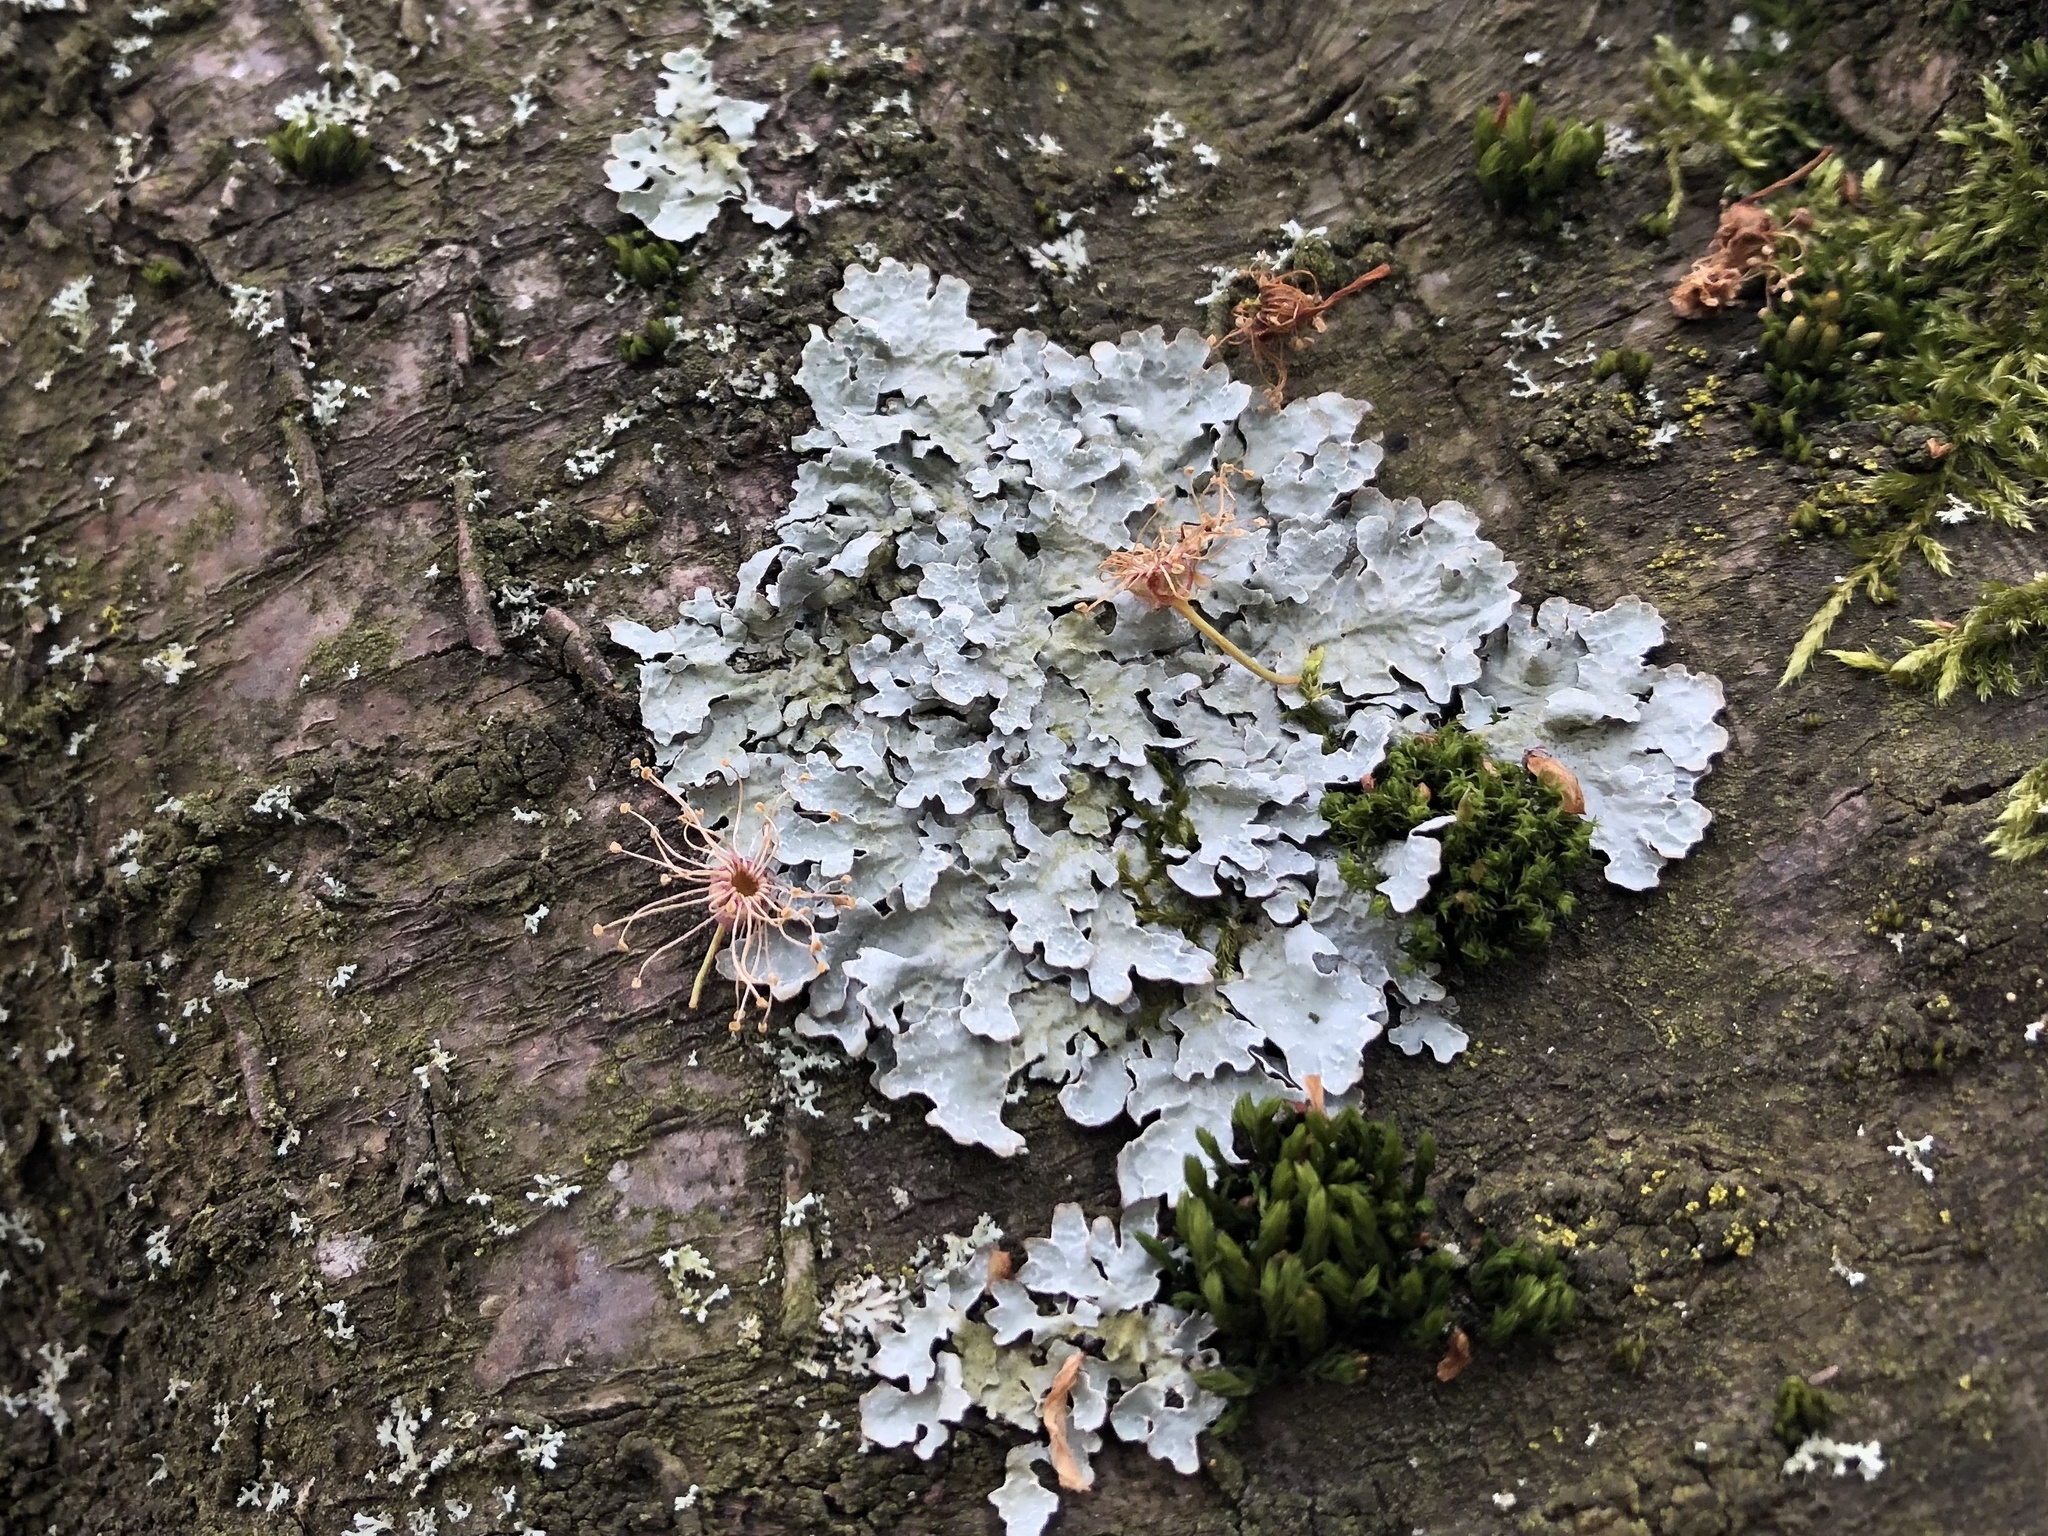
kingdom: Fungi
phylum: Ascomycota
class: Lecanoromycetes
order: Lecanorales
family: Parmeliaceae
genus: Parmelia
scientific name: Parmelia sulcata
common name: Netted shield lichen
